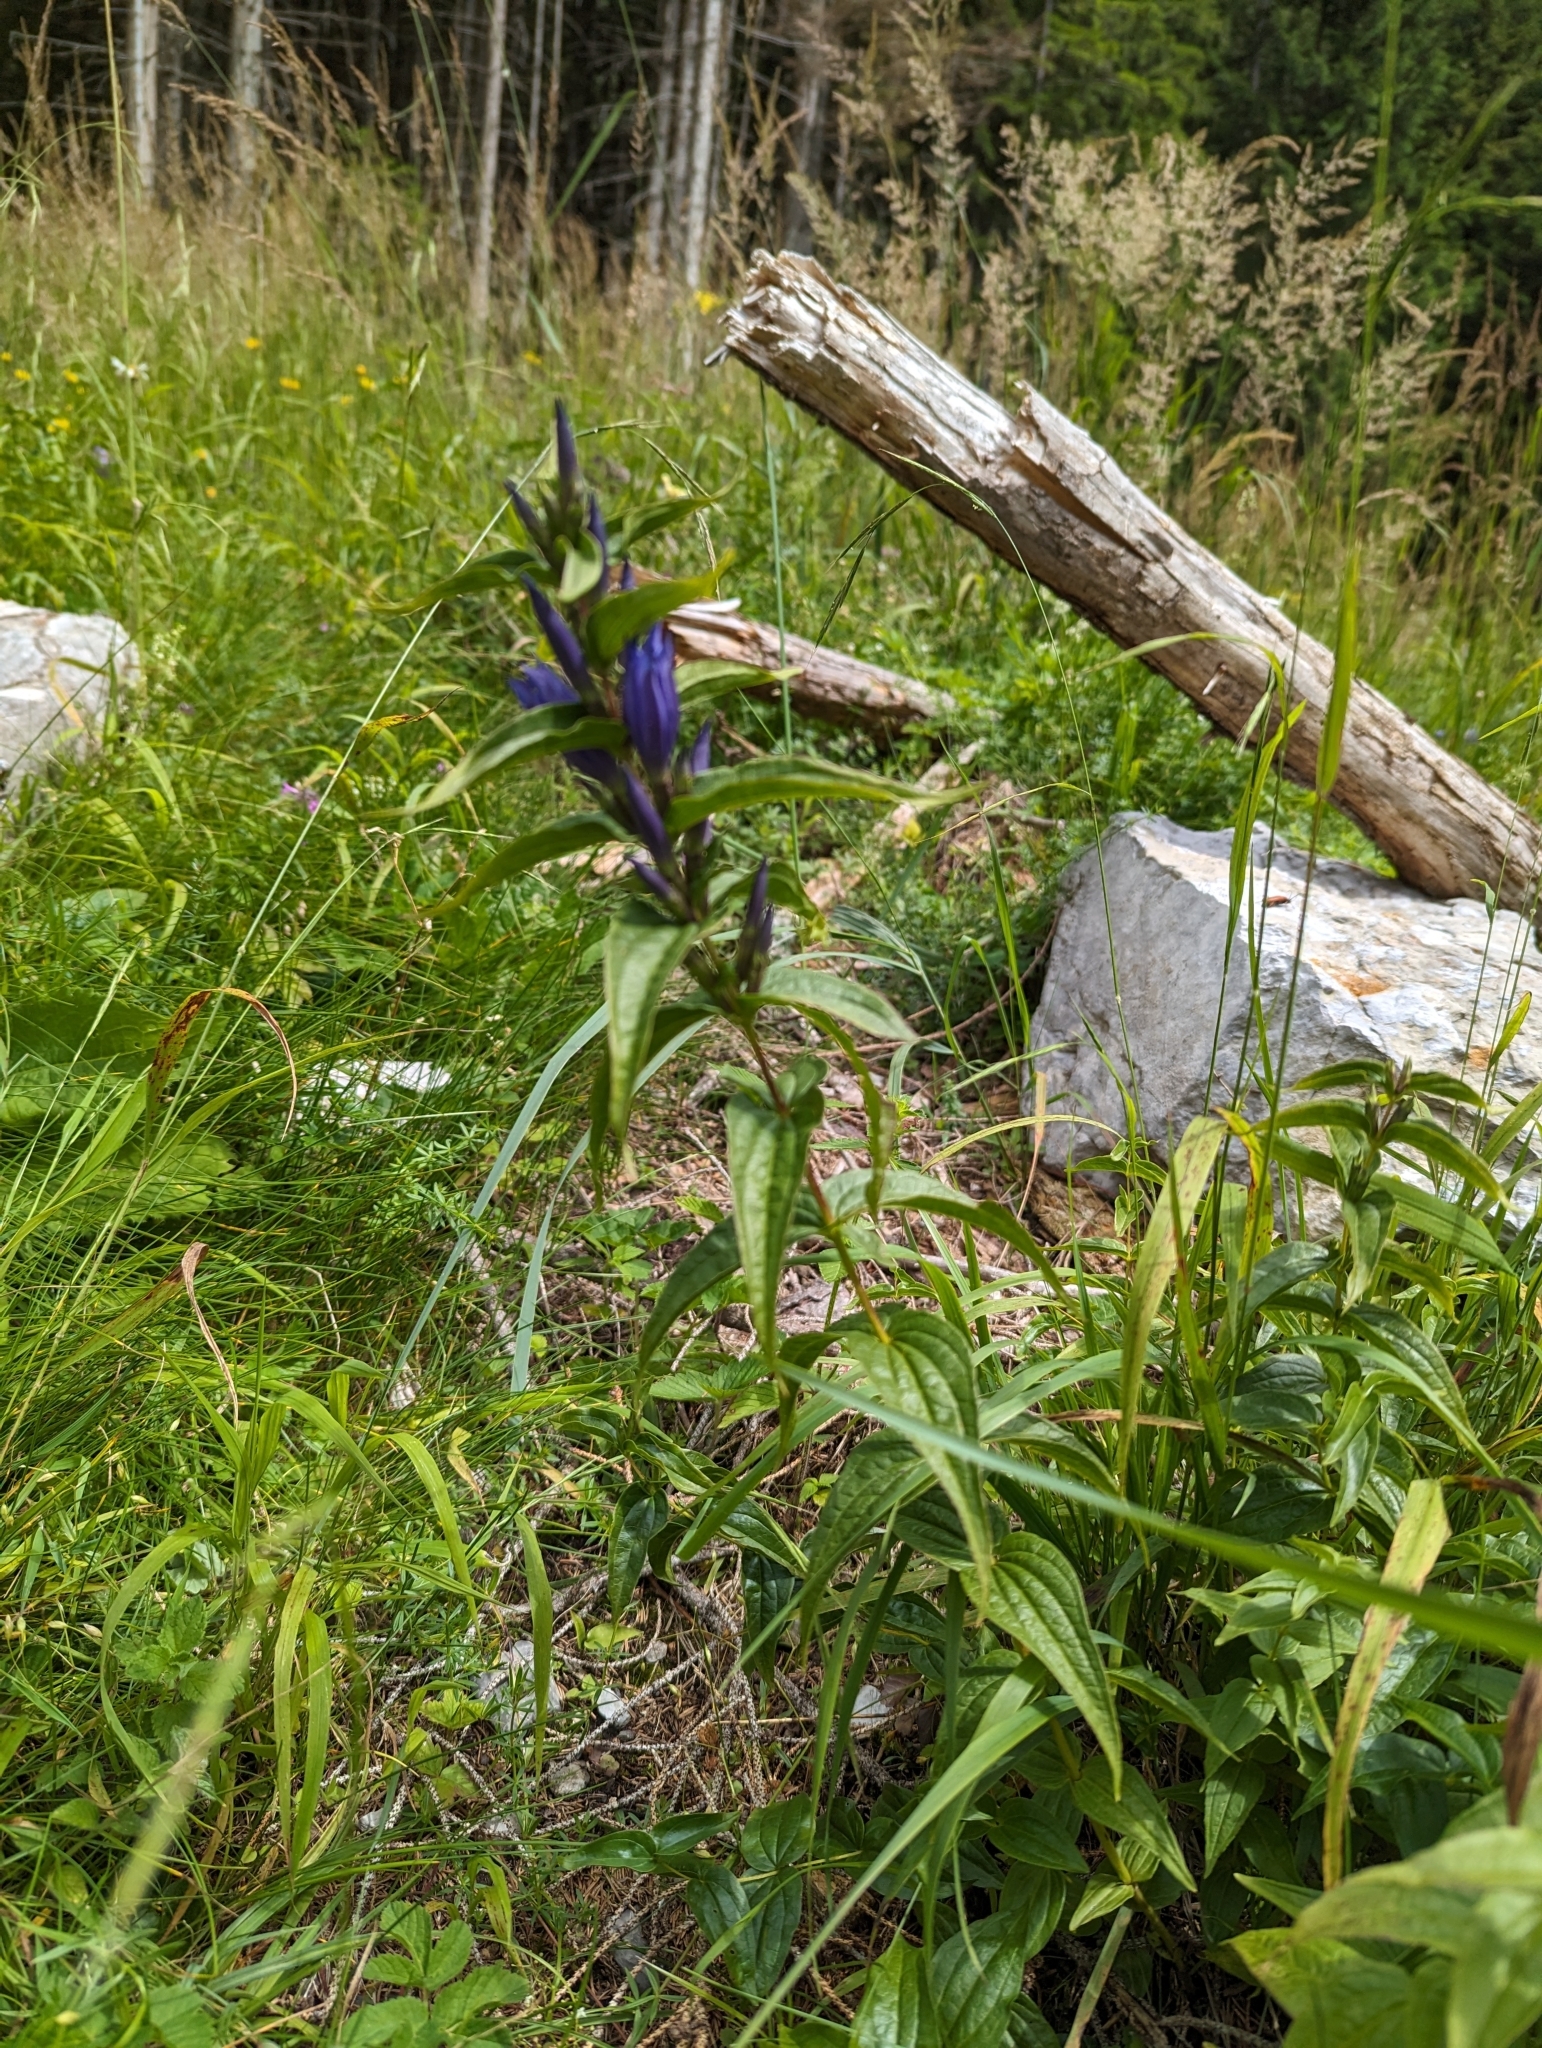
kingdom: Plantae
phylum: Tracheophyta
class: Magnoliopsida
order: Gentianales
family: Gentianaceae
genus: Gentiana
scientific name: Gentiana asclepiadea
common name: Willow gentian
